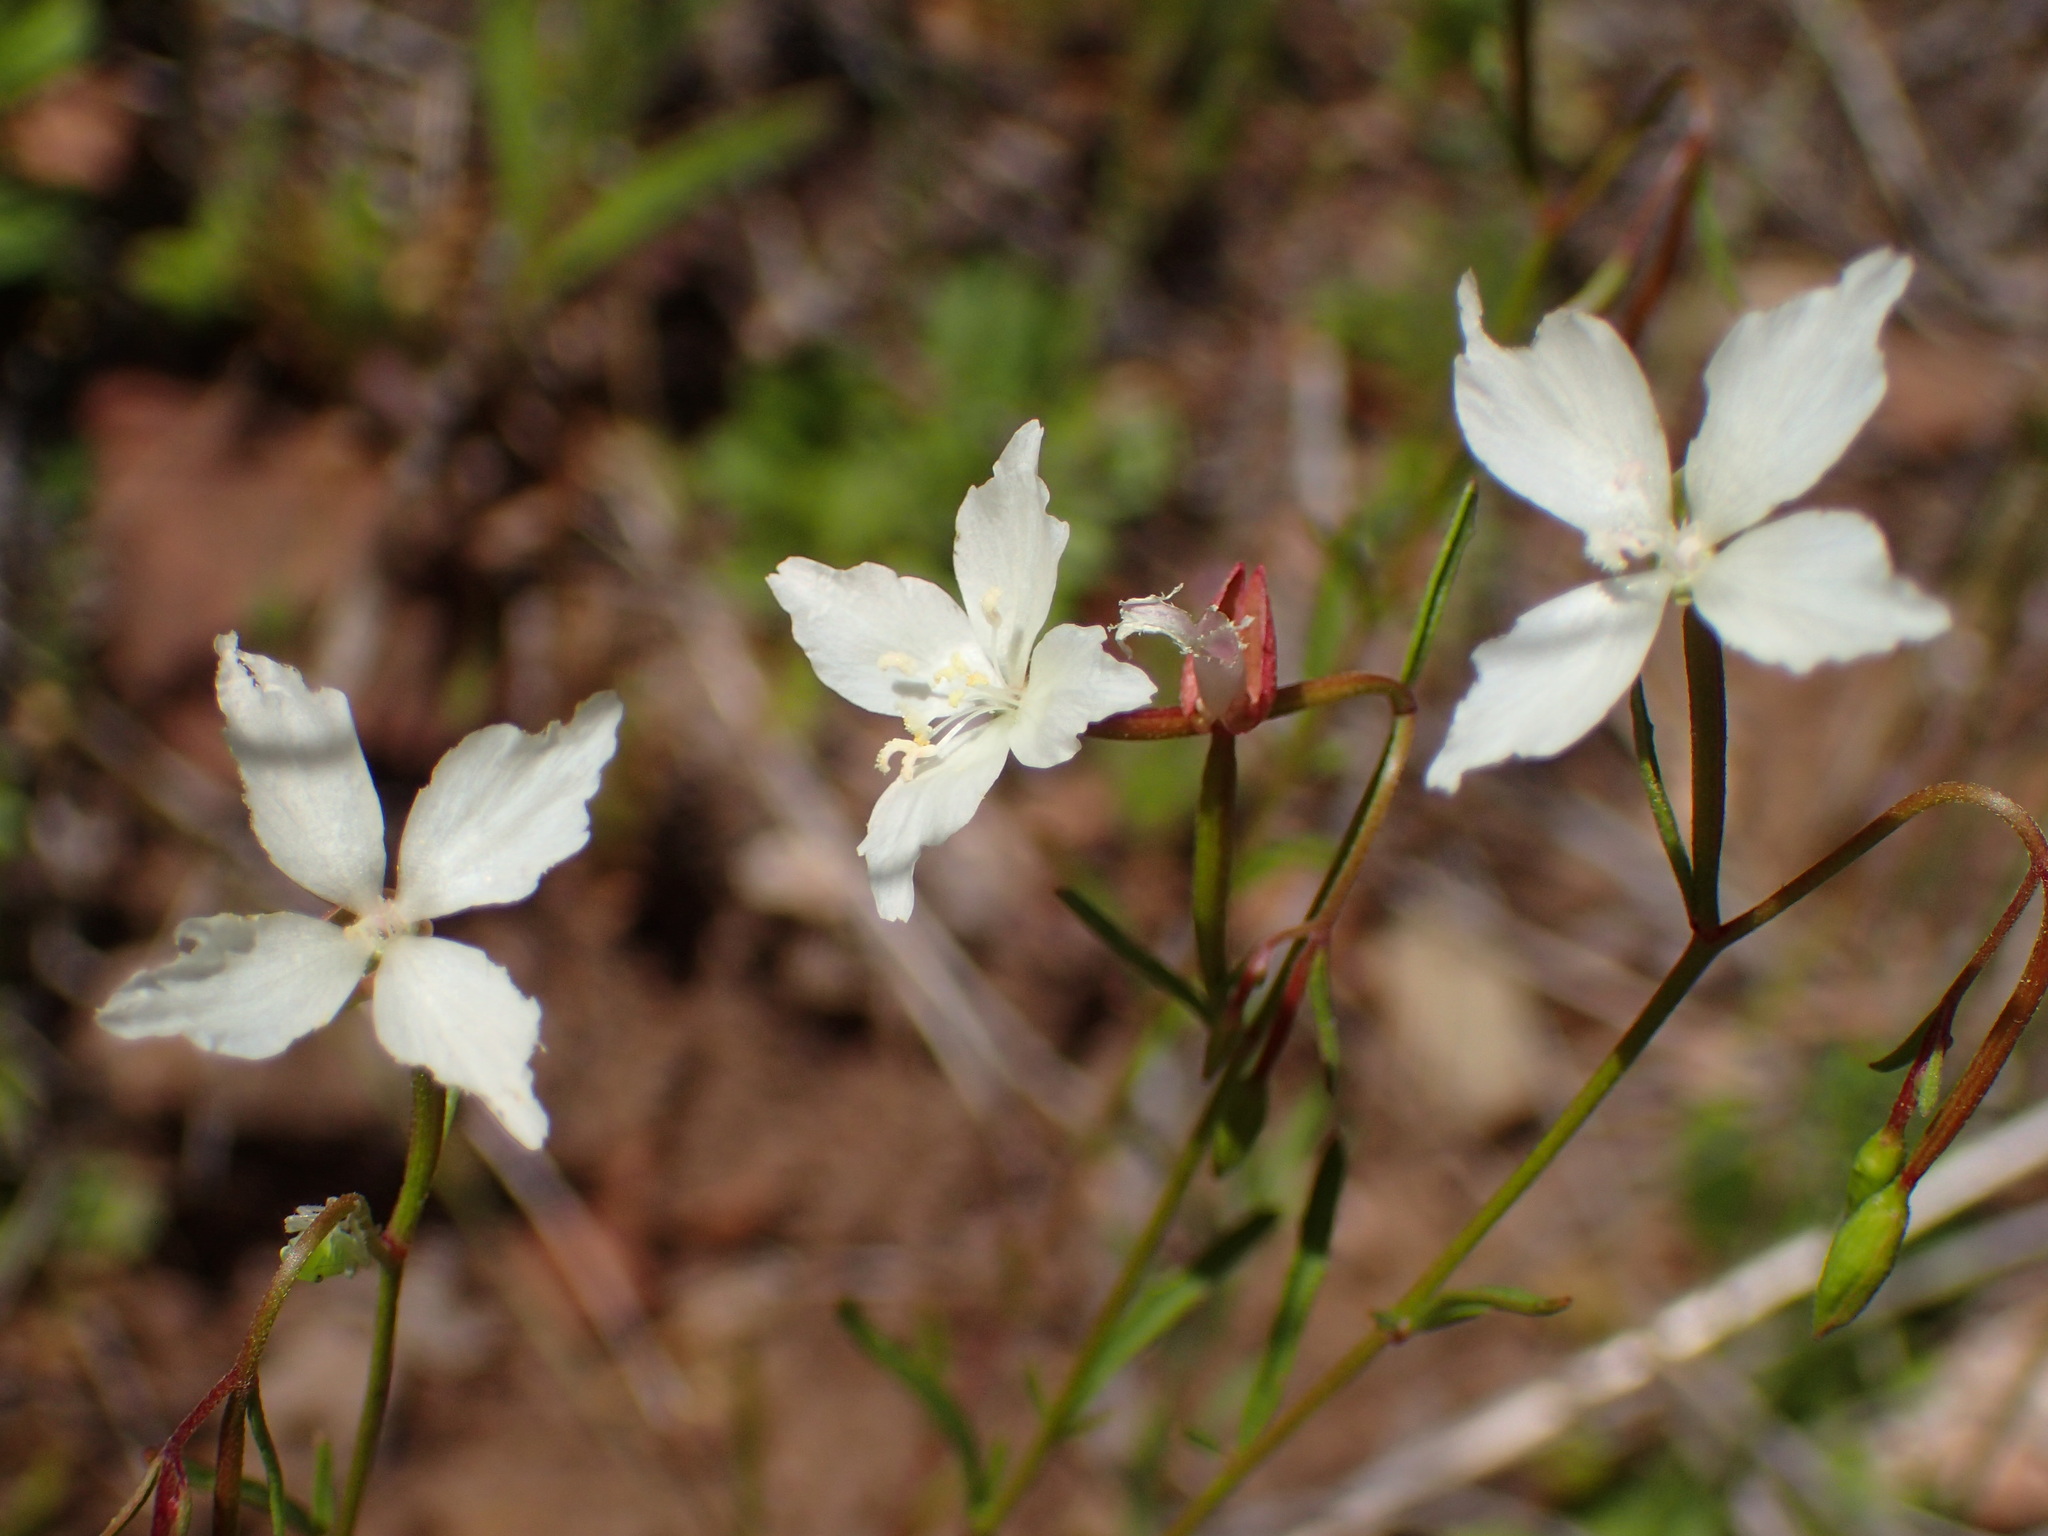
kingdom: Plantae
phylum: Tracheophyta
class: Magnoliopsida
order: Myrtales
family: Onagraceae
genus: Clarkia
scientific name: Clarkia epilobioides
